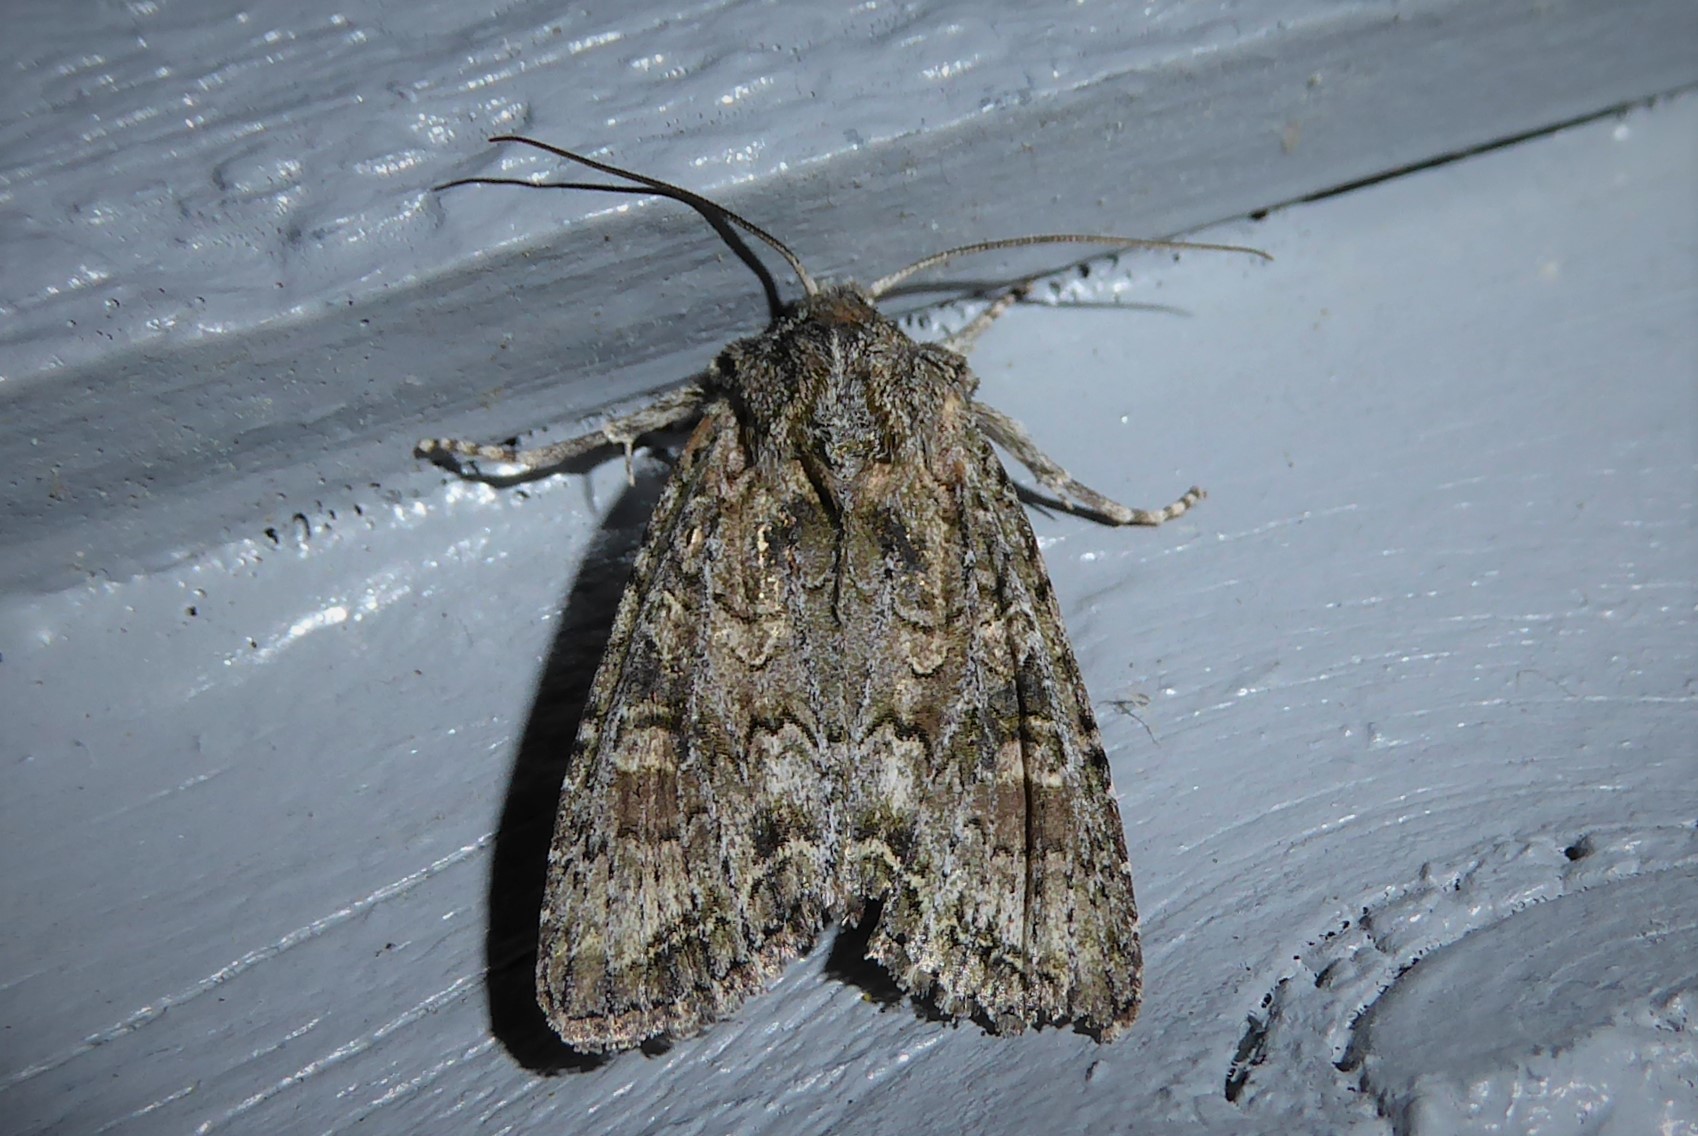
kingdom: Animalia
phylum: Arthropoda
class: Insecta
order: Lepidoptera
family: Noctuidae
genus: Ichneutica
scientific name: Ichneutica mutans
